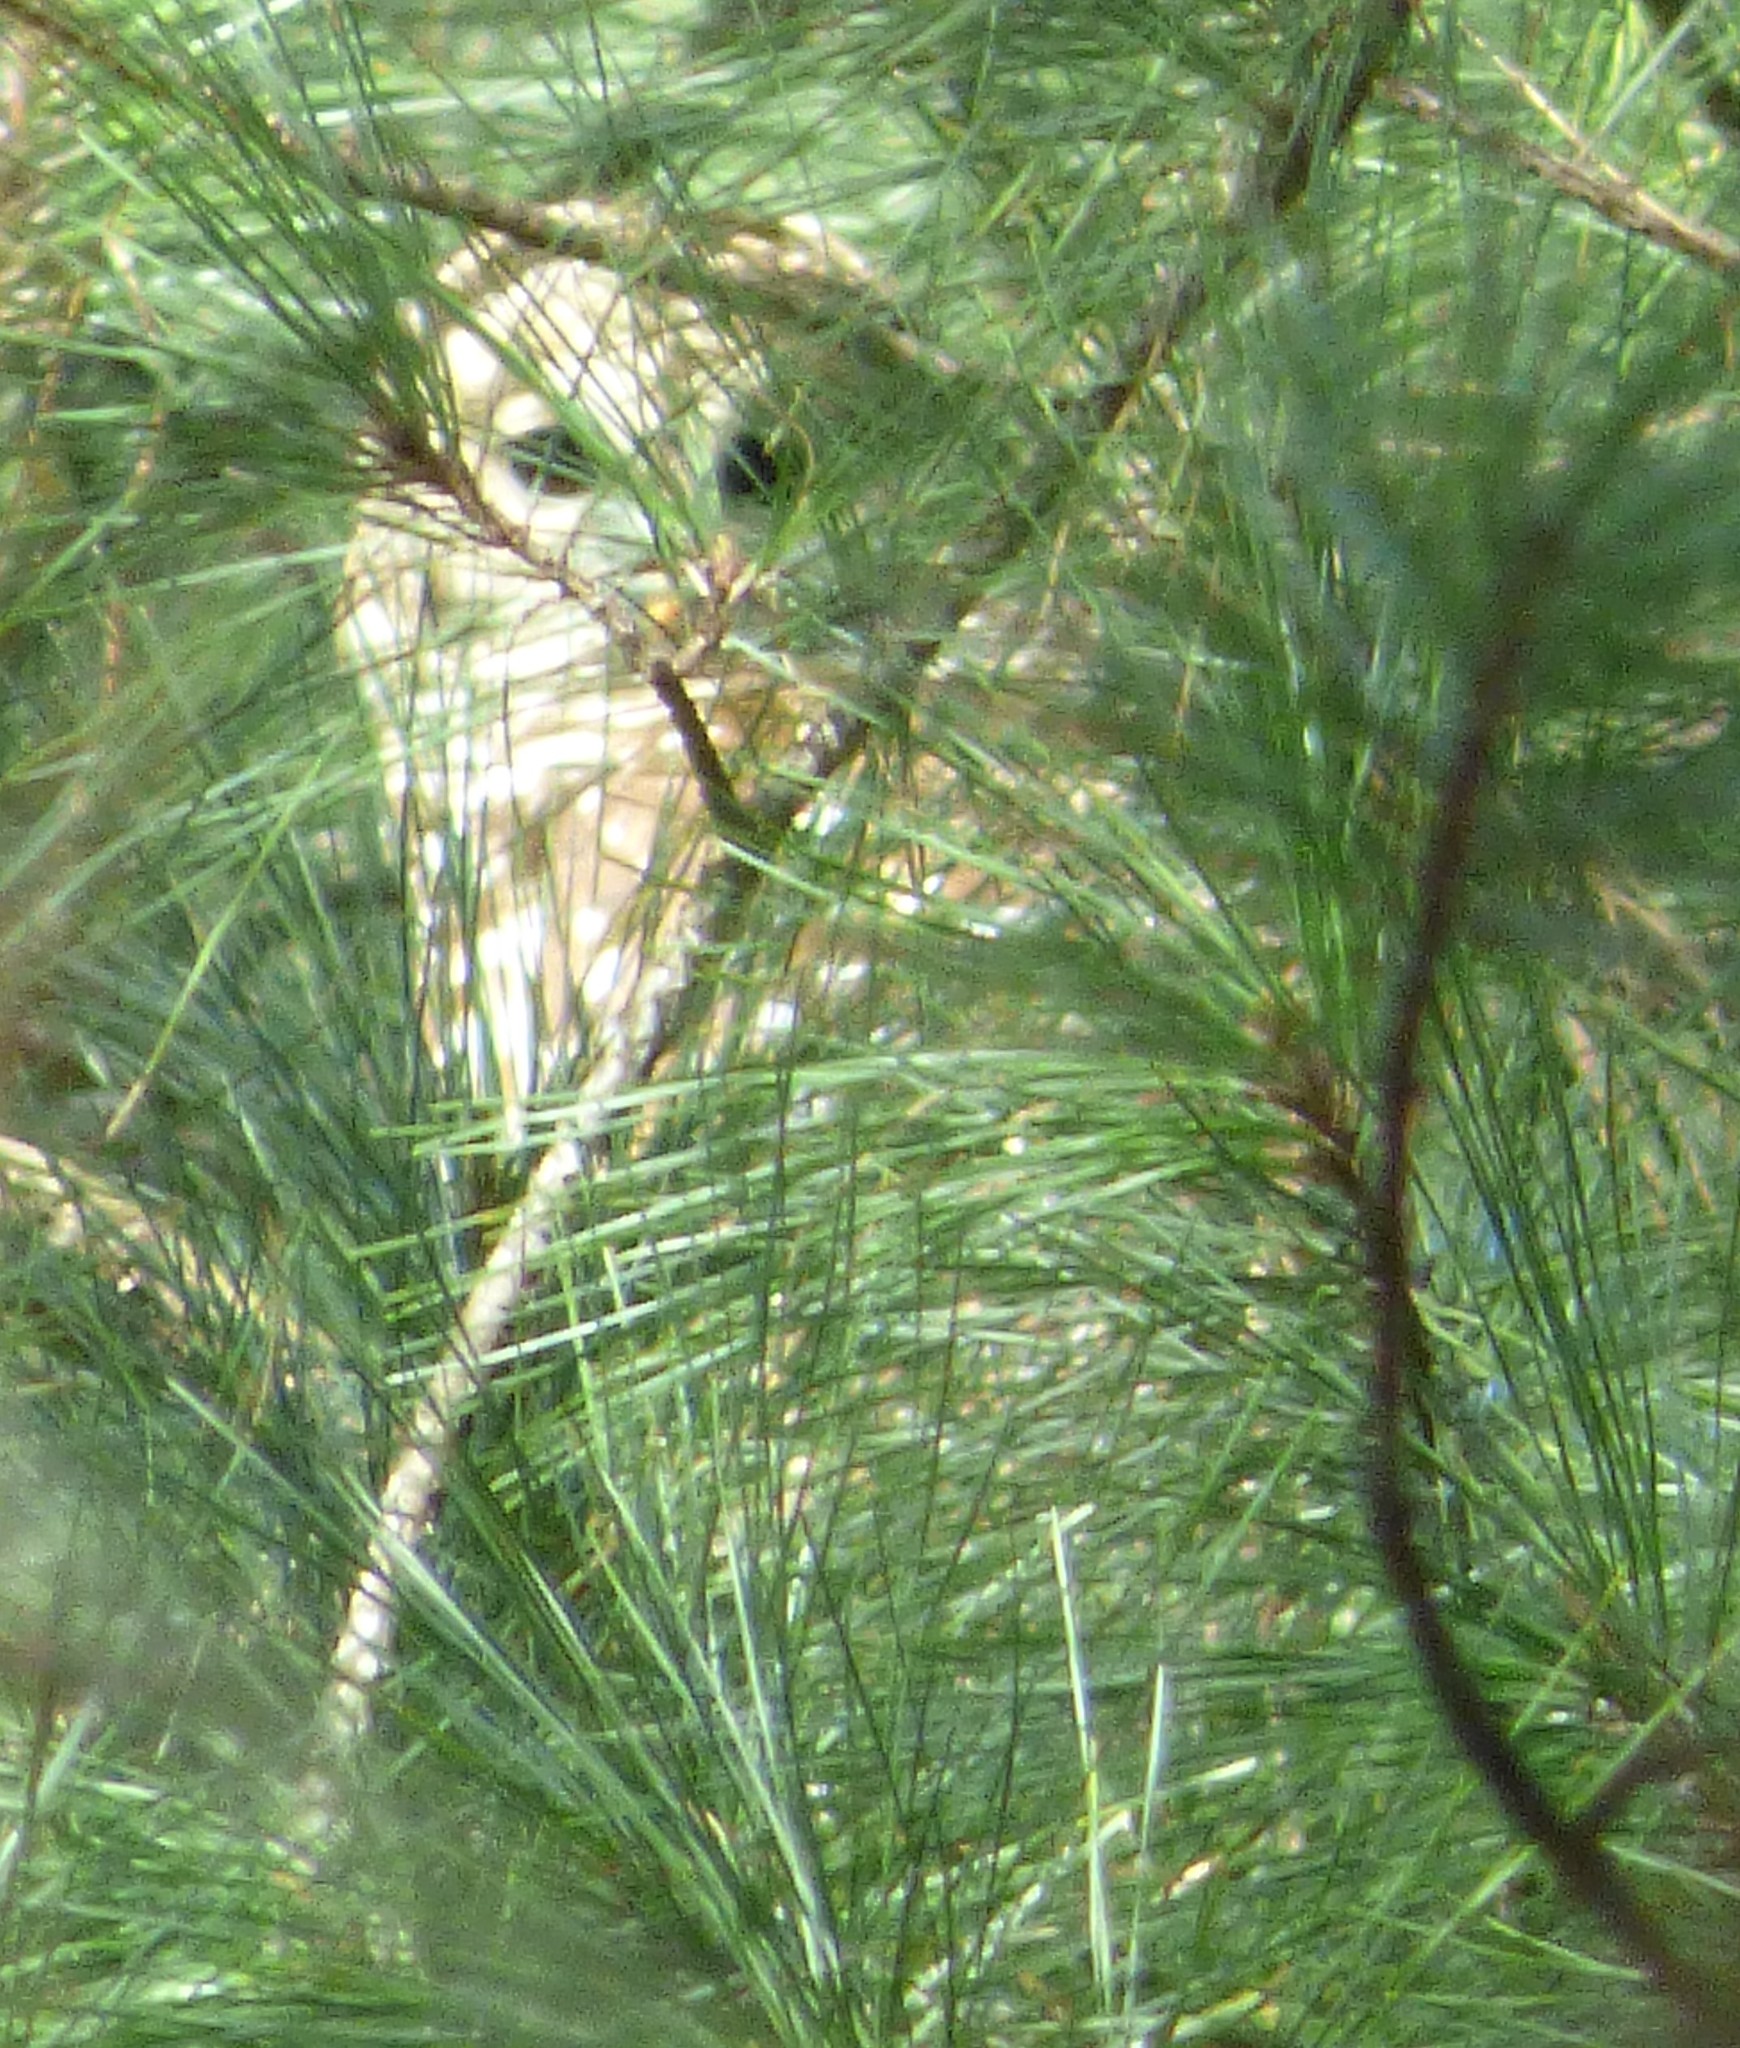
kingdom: Animalia
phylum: Chordata
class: Aves
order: Strigiformes
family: Strigidae
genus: Strix
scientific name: Strix varia
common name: Barred owl
